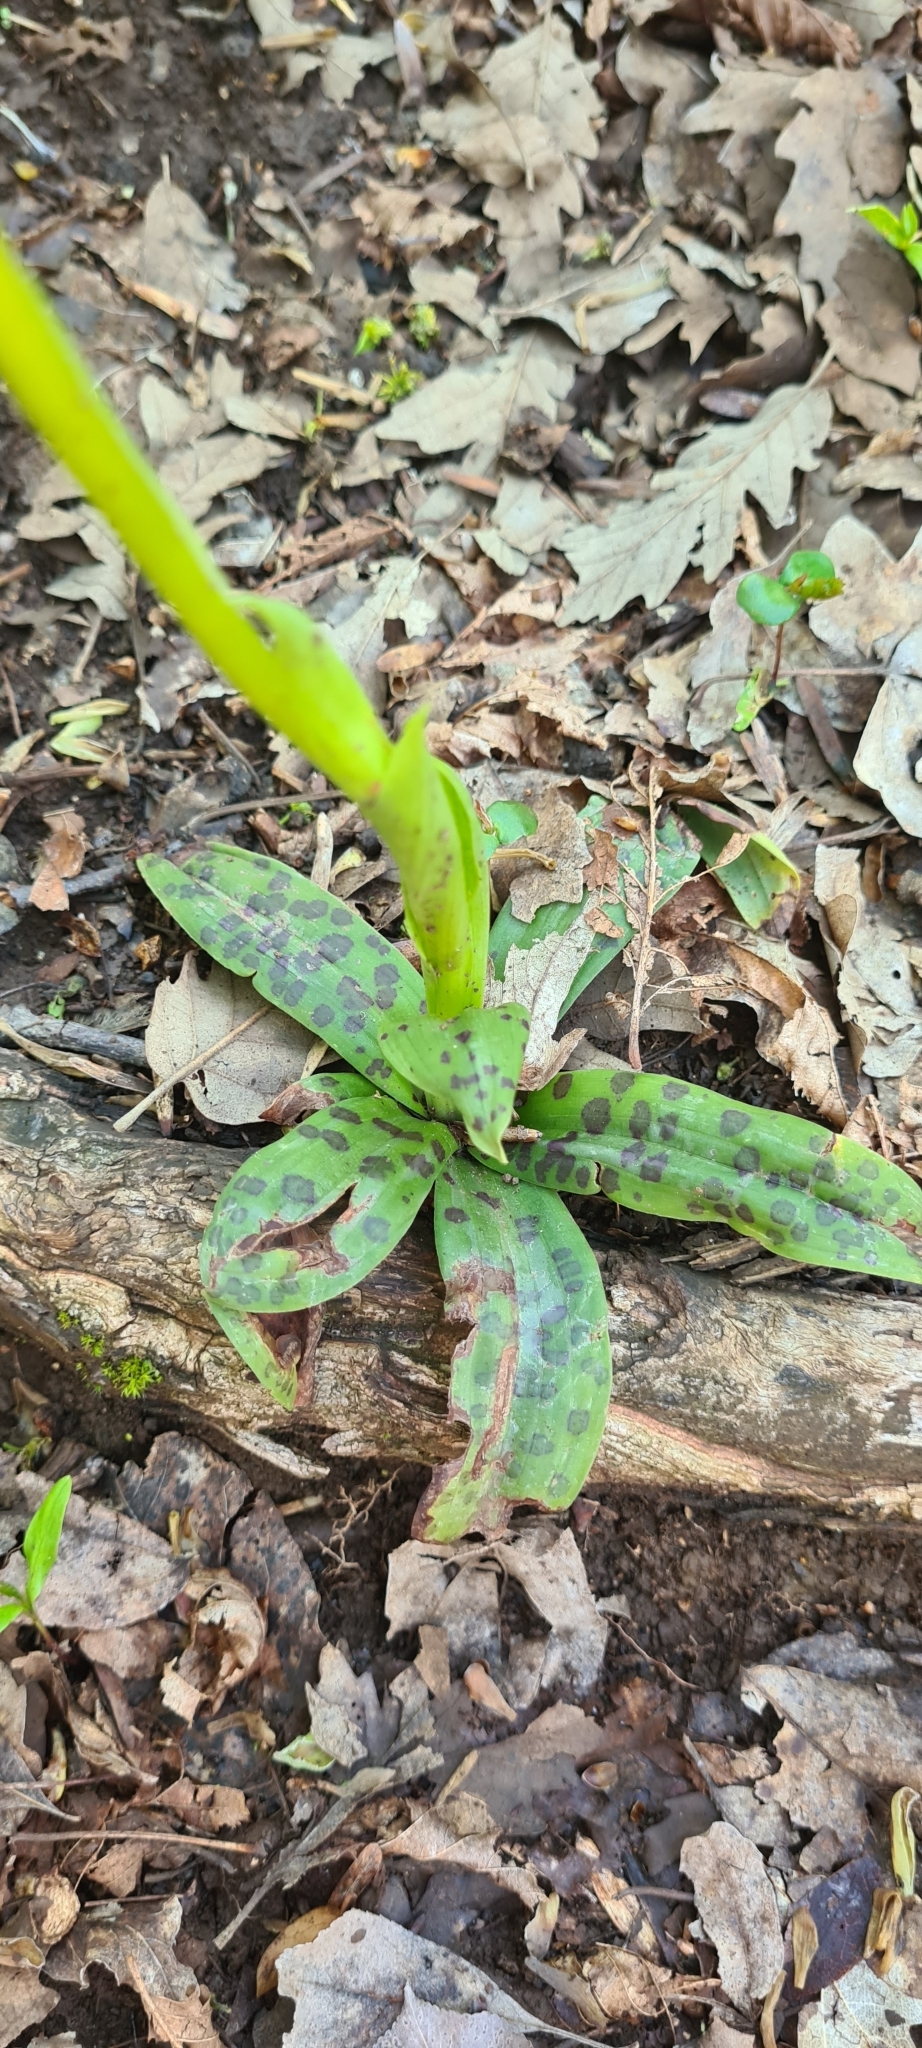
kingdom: Plantae
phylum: Tracheophyta
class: Liliopsida
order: Asparagales
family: Orchidaceae
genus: Orchis
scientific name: Orchis provincialis
